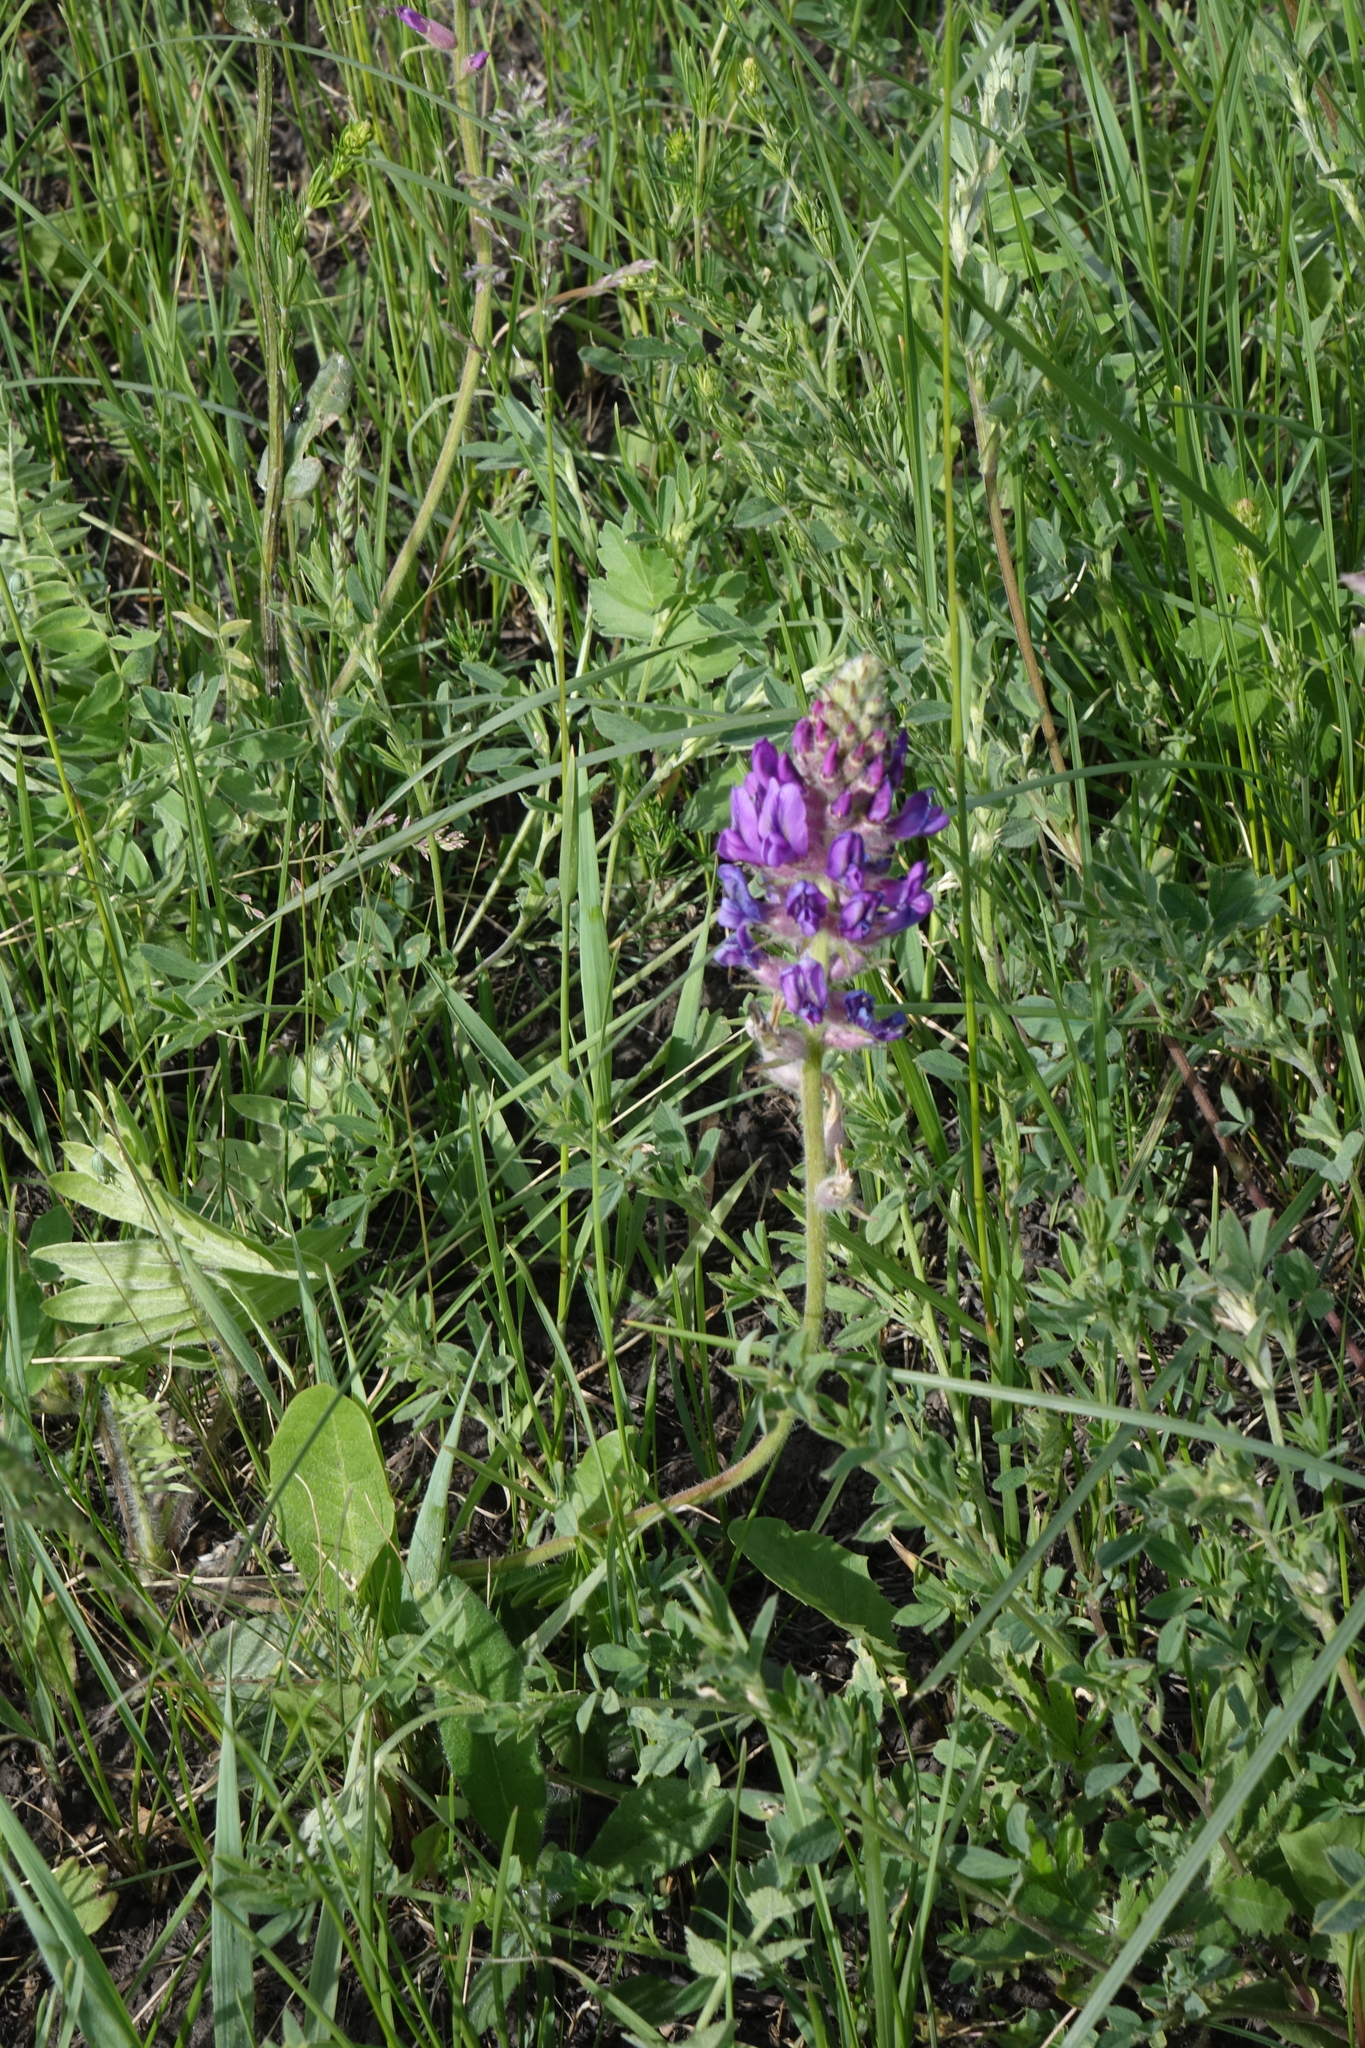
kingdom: Plantae
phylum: Tracheophyta
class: Magnoliopsida
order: Fabales
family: Fabaceae
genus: Oxytropis
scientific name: Oxytropis campanulata
